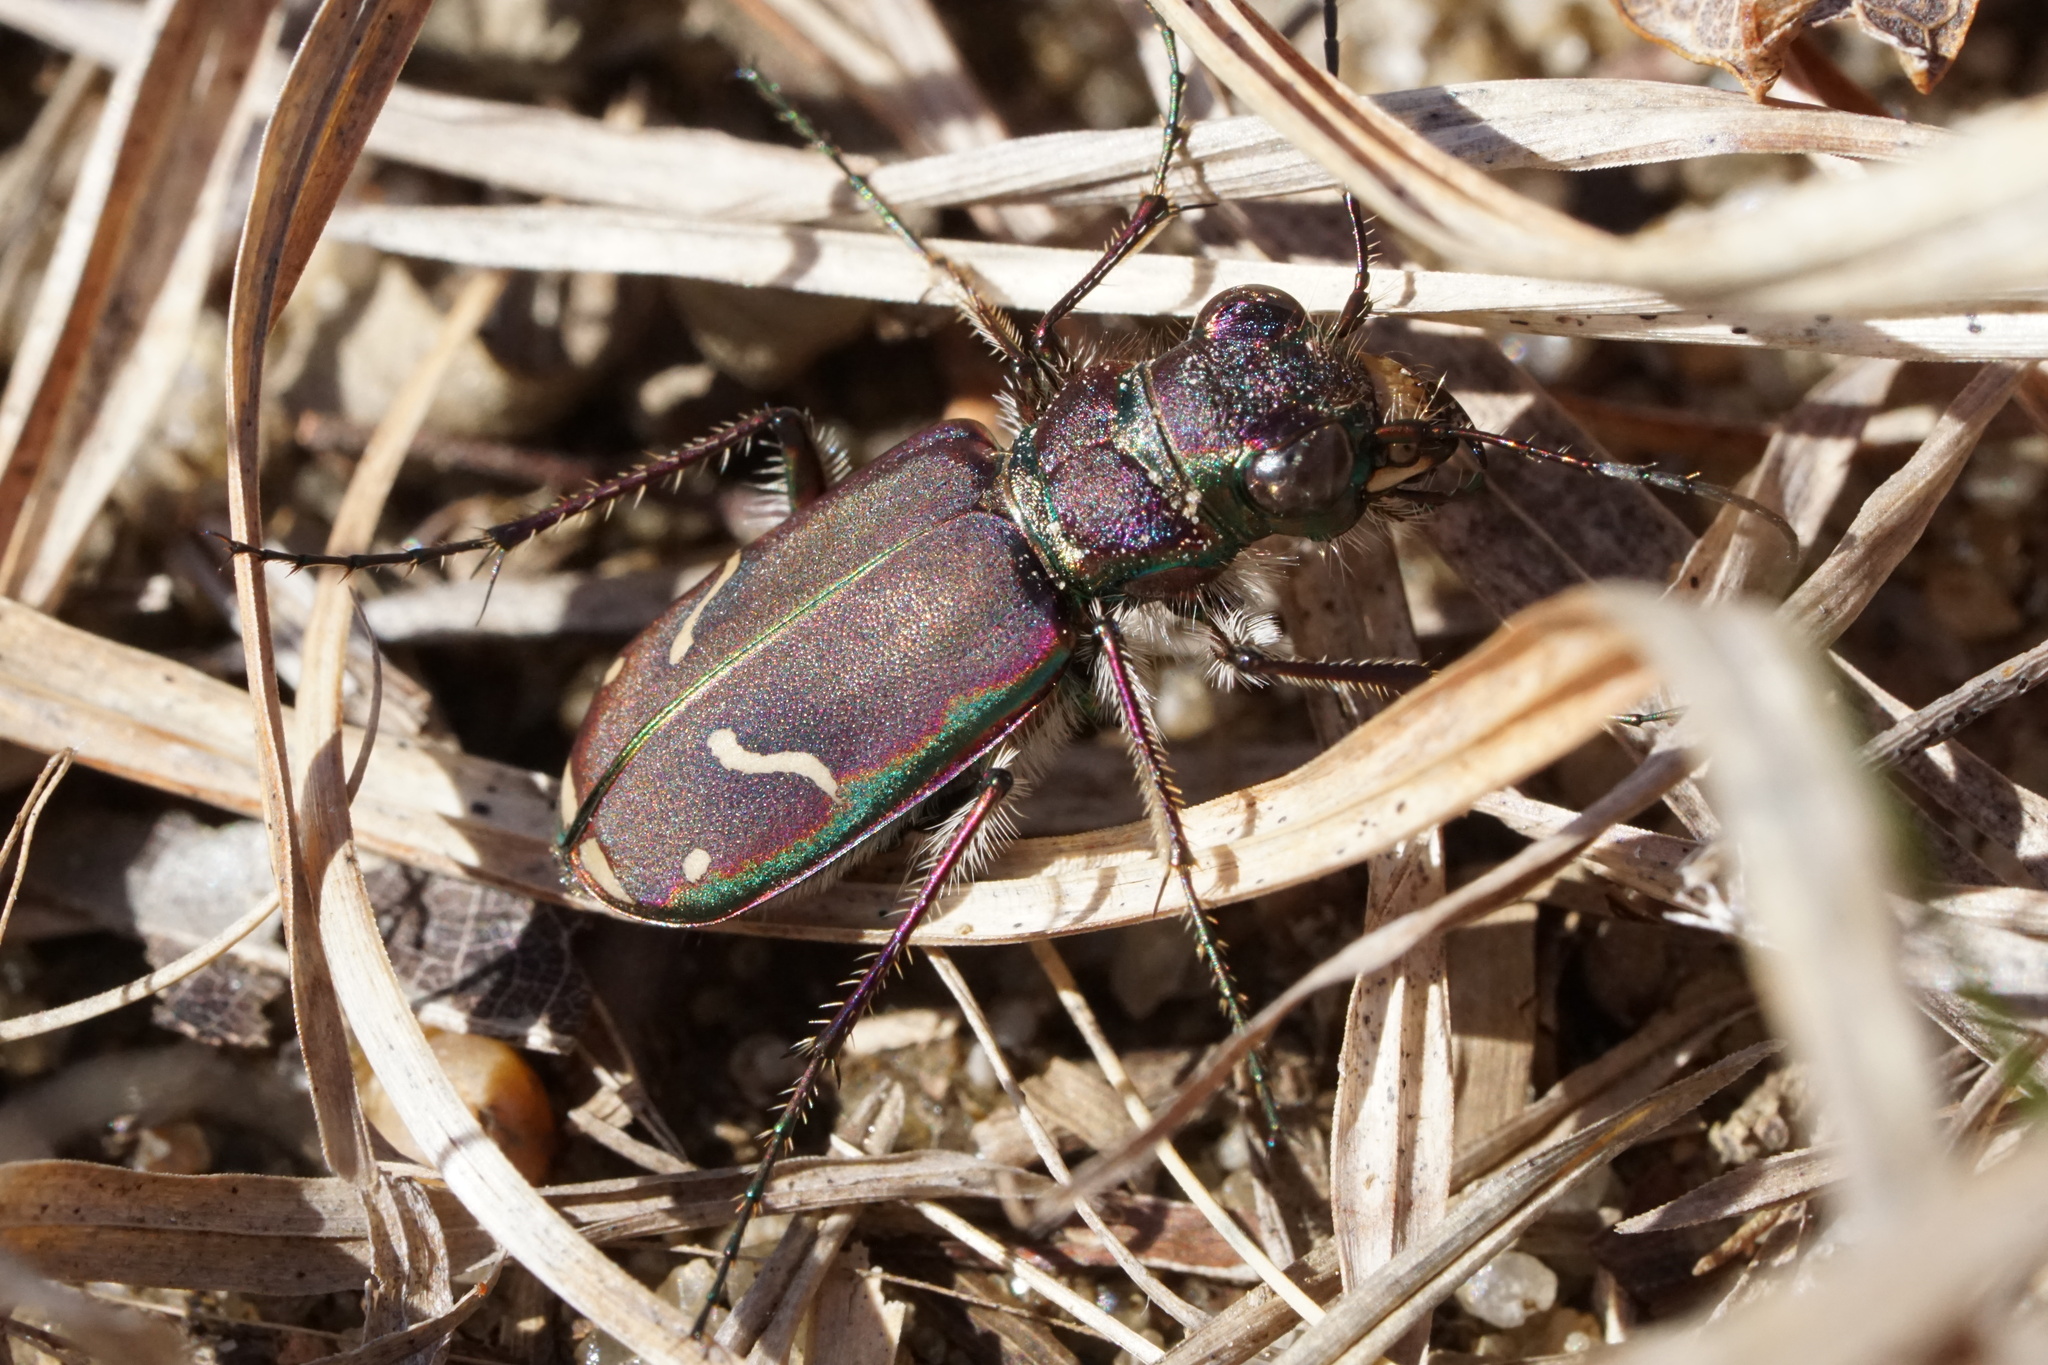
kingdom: Animalia
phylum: Arthropoda
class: Insecta
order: Coleoptera
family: Carabidae
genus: Cicindela
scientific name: Cicindela purpurea
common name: Cow path tiger beetle
